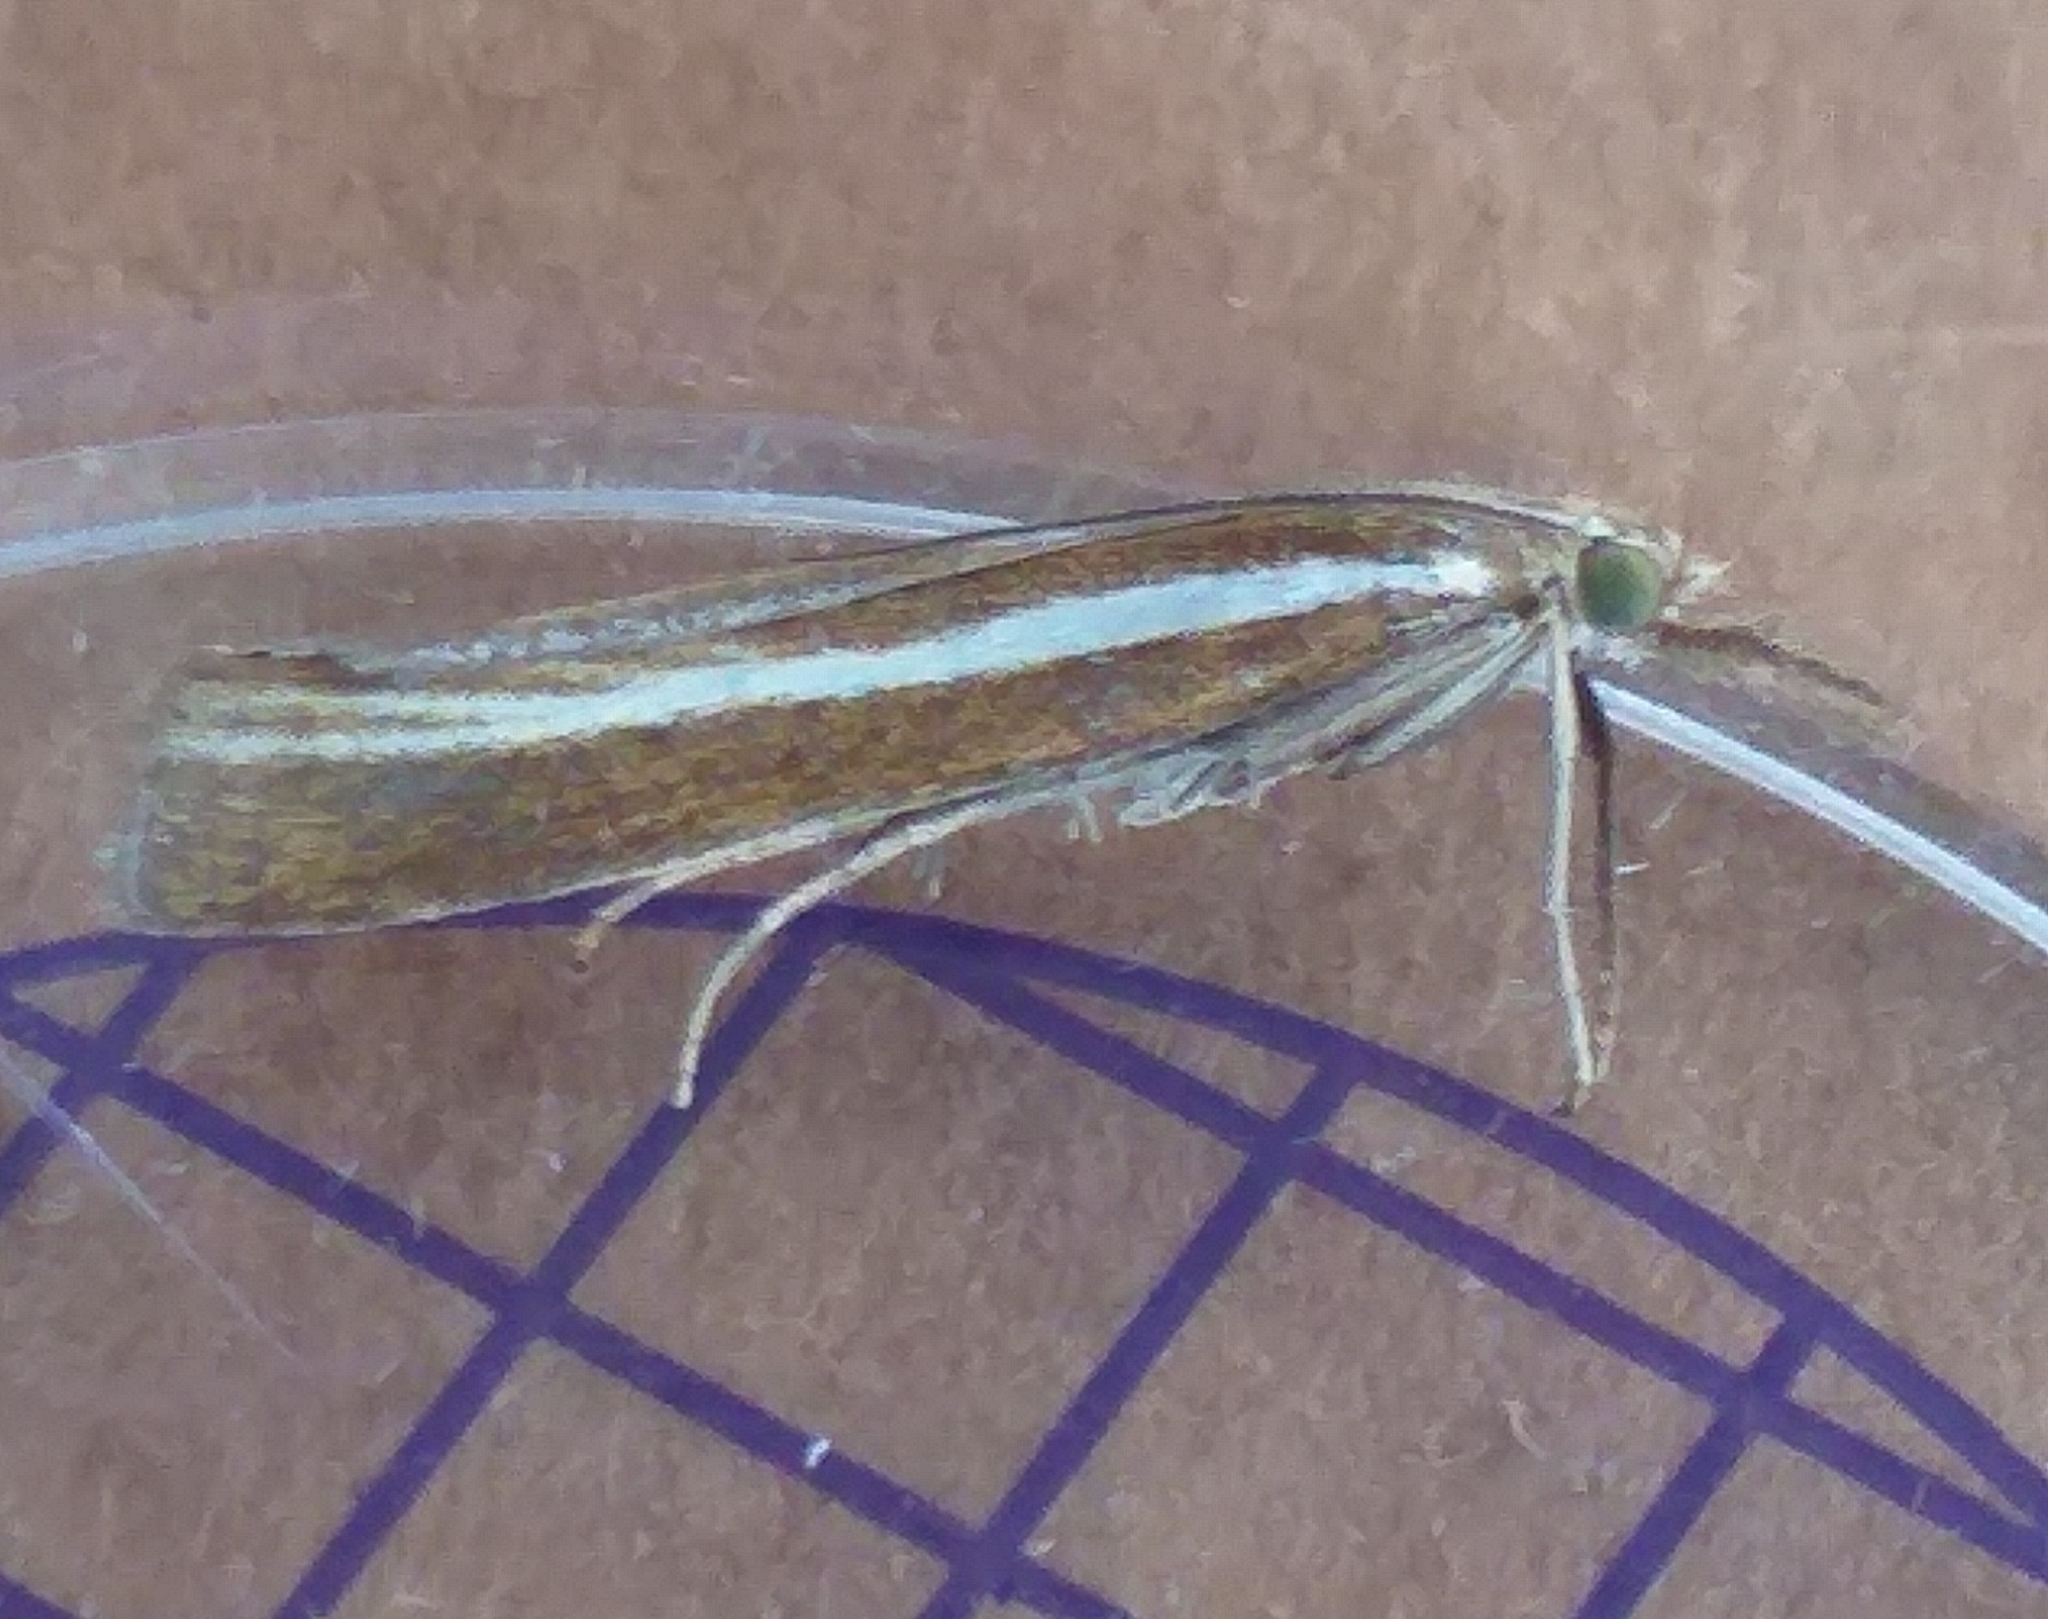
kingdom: Animalia
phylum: Arthropoda
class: Insecta
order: Lepidoptera
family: Crambidae
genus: Agriphila
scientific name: Agriphila tristellus
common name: Common grass-veneer
